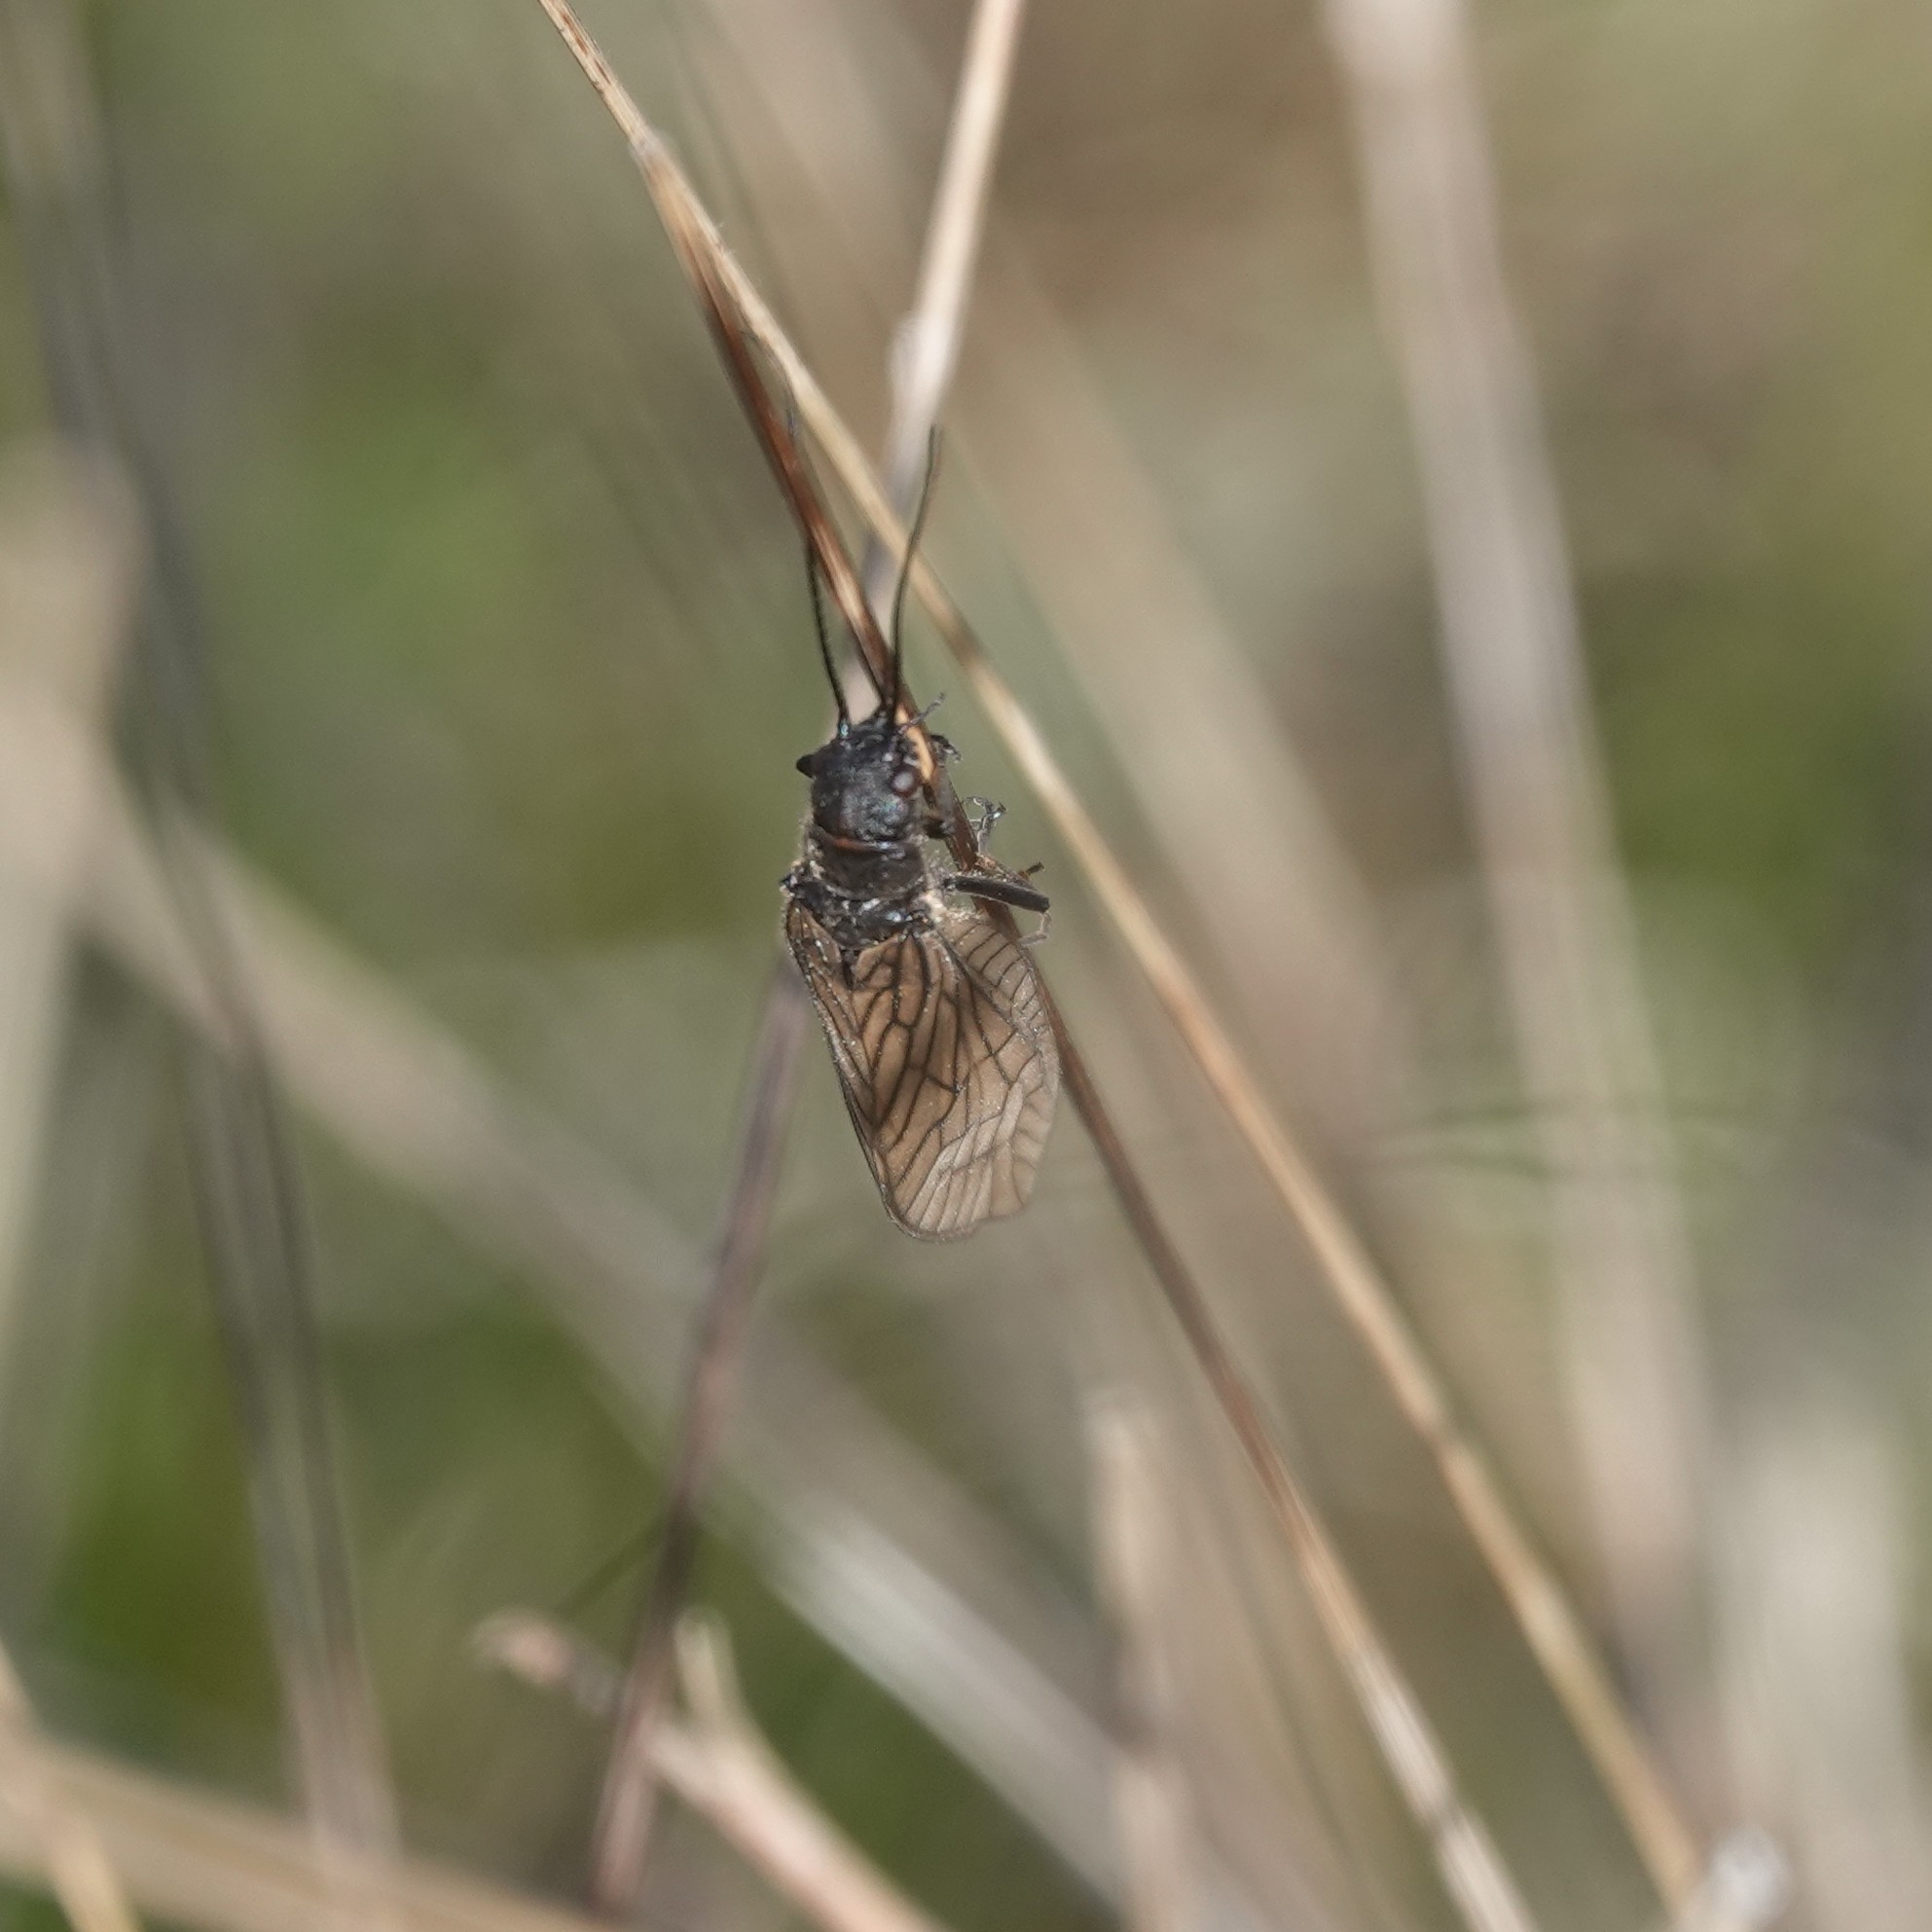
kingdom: Animalia
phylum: Arthropoda
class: Insecta
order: Megaloptera
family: Sialidae
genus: Sialis
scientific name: Sialis
